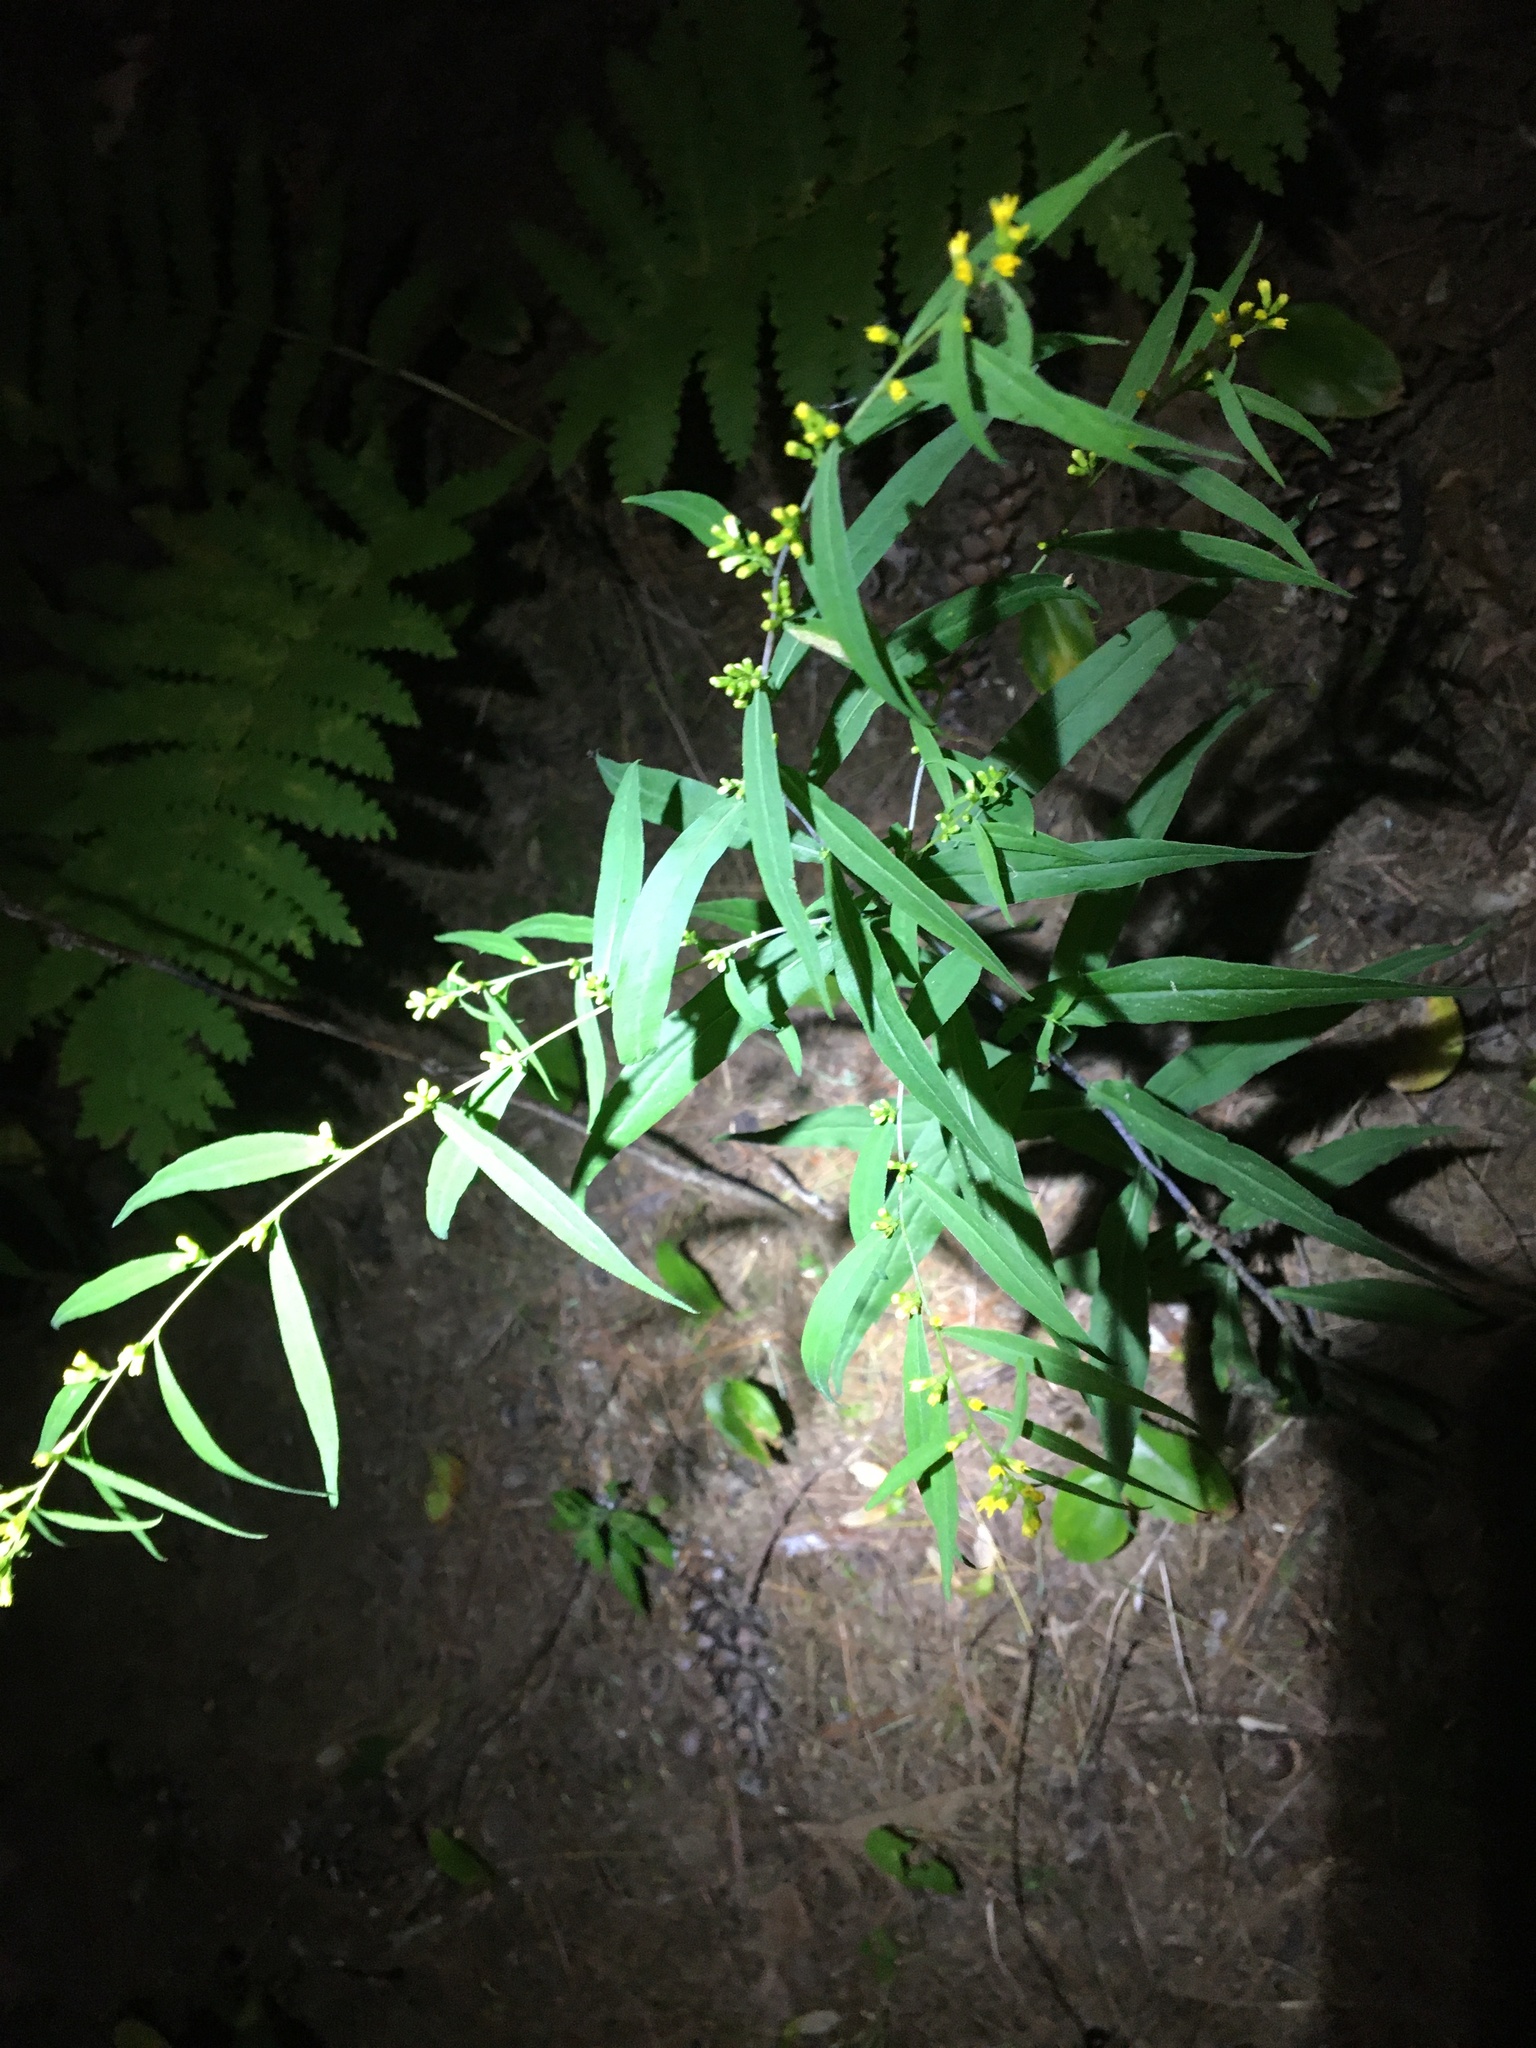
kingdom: Plantae
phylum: Tracheophyta
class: Magnoliopsida
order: Asterales
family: Asteraceae
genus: Solidago
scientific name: Solidago caesia
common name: Woodland goldenrod
